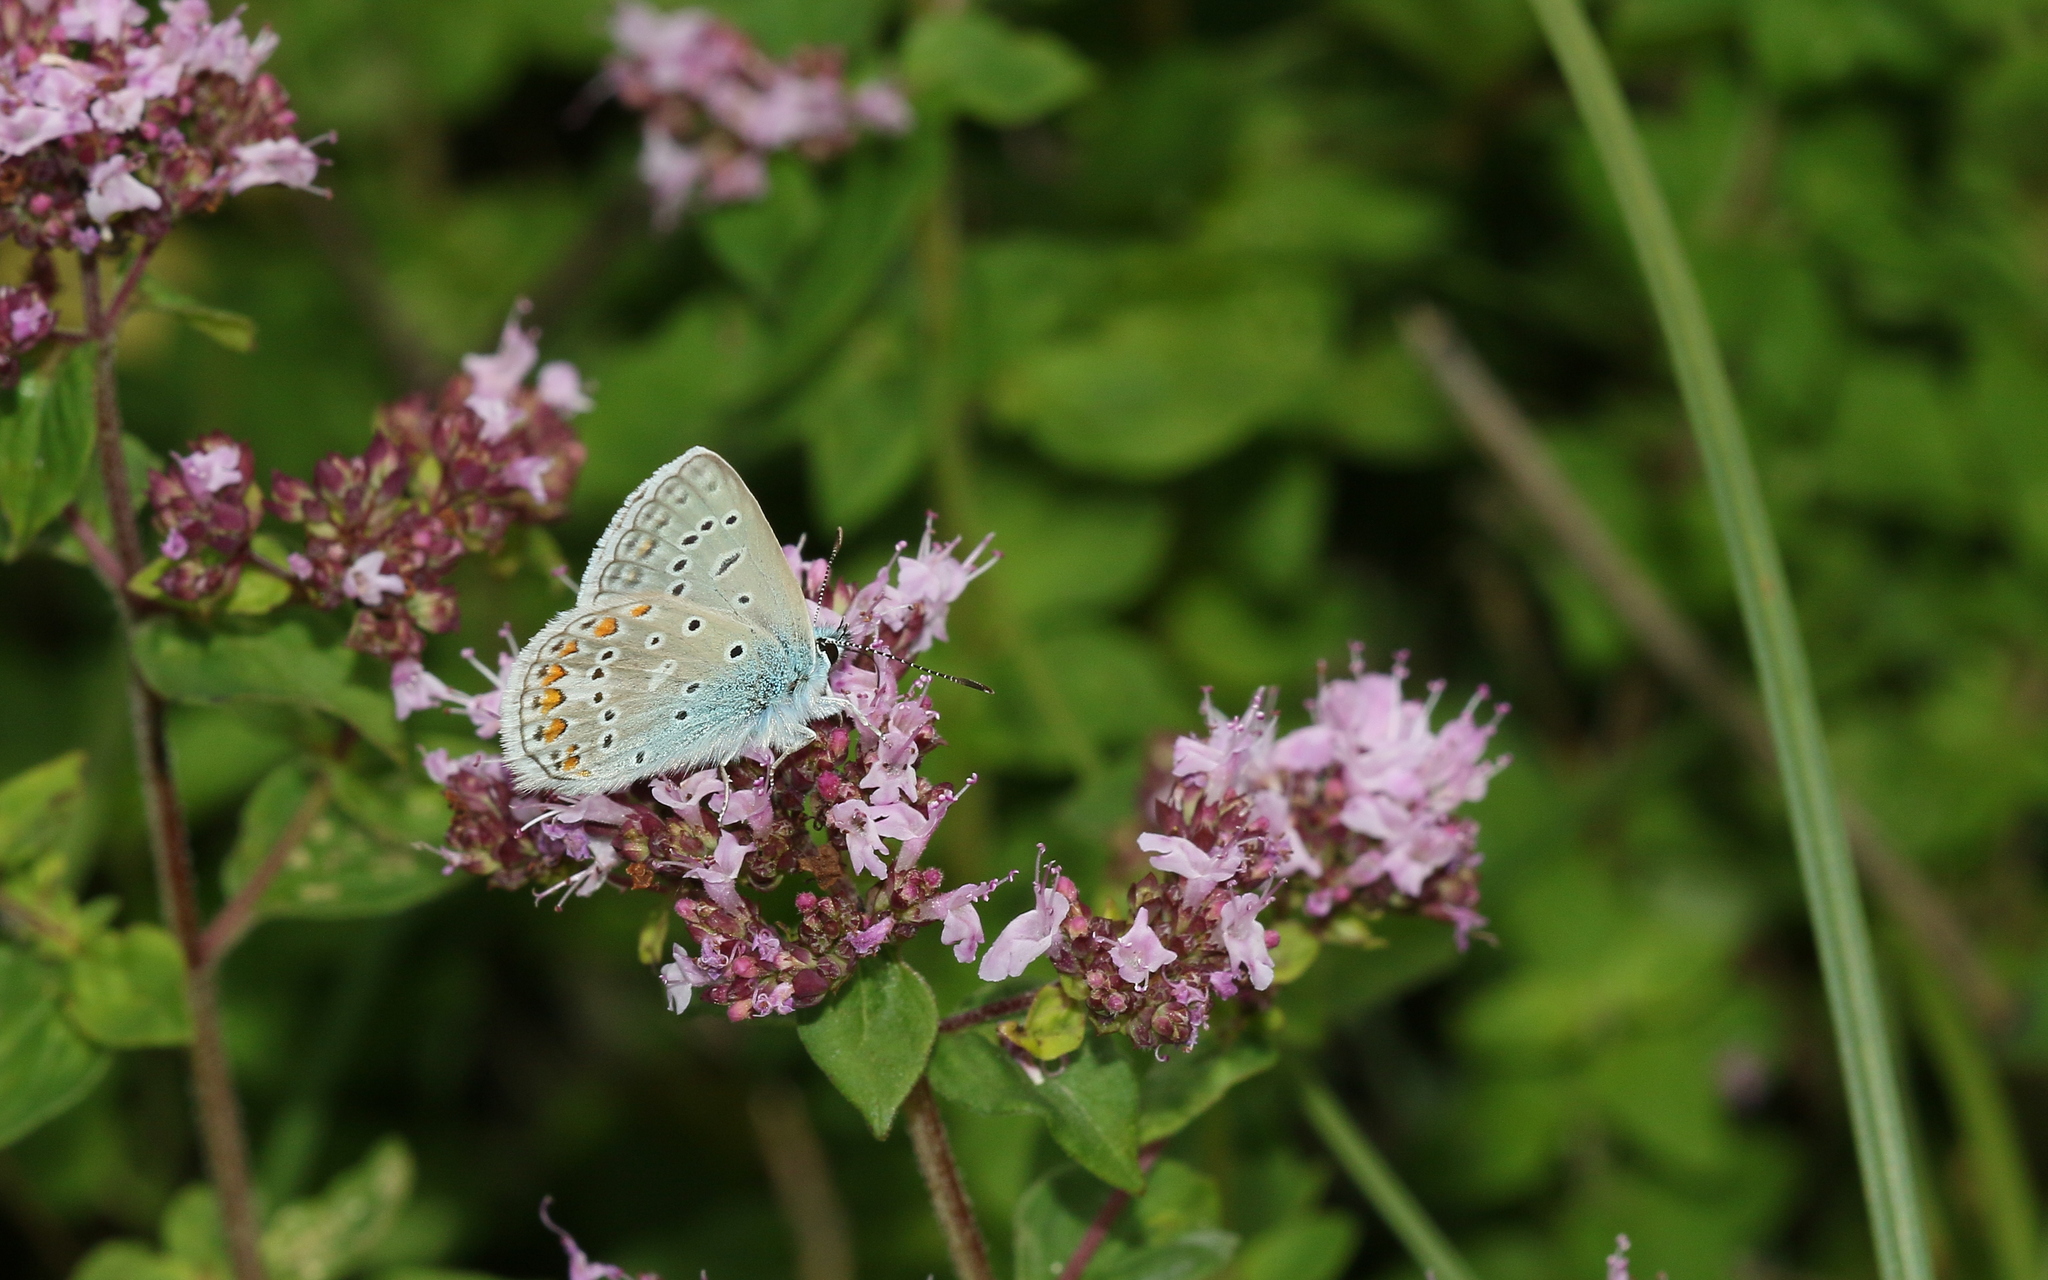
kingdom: Animalia
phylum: Arthropoda
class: Insecta
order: Lepidoptera
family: Lycaenidae
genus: Polyommatus
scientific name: Polyommatus icarus
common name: Common blue
